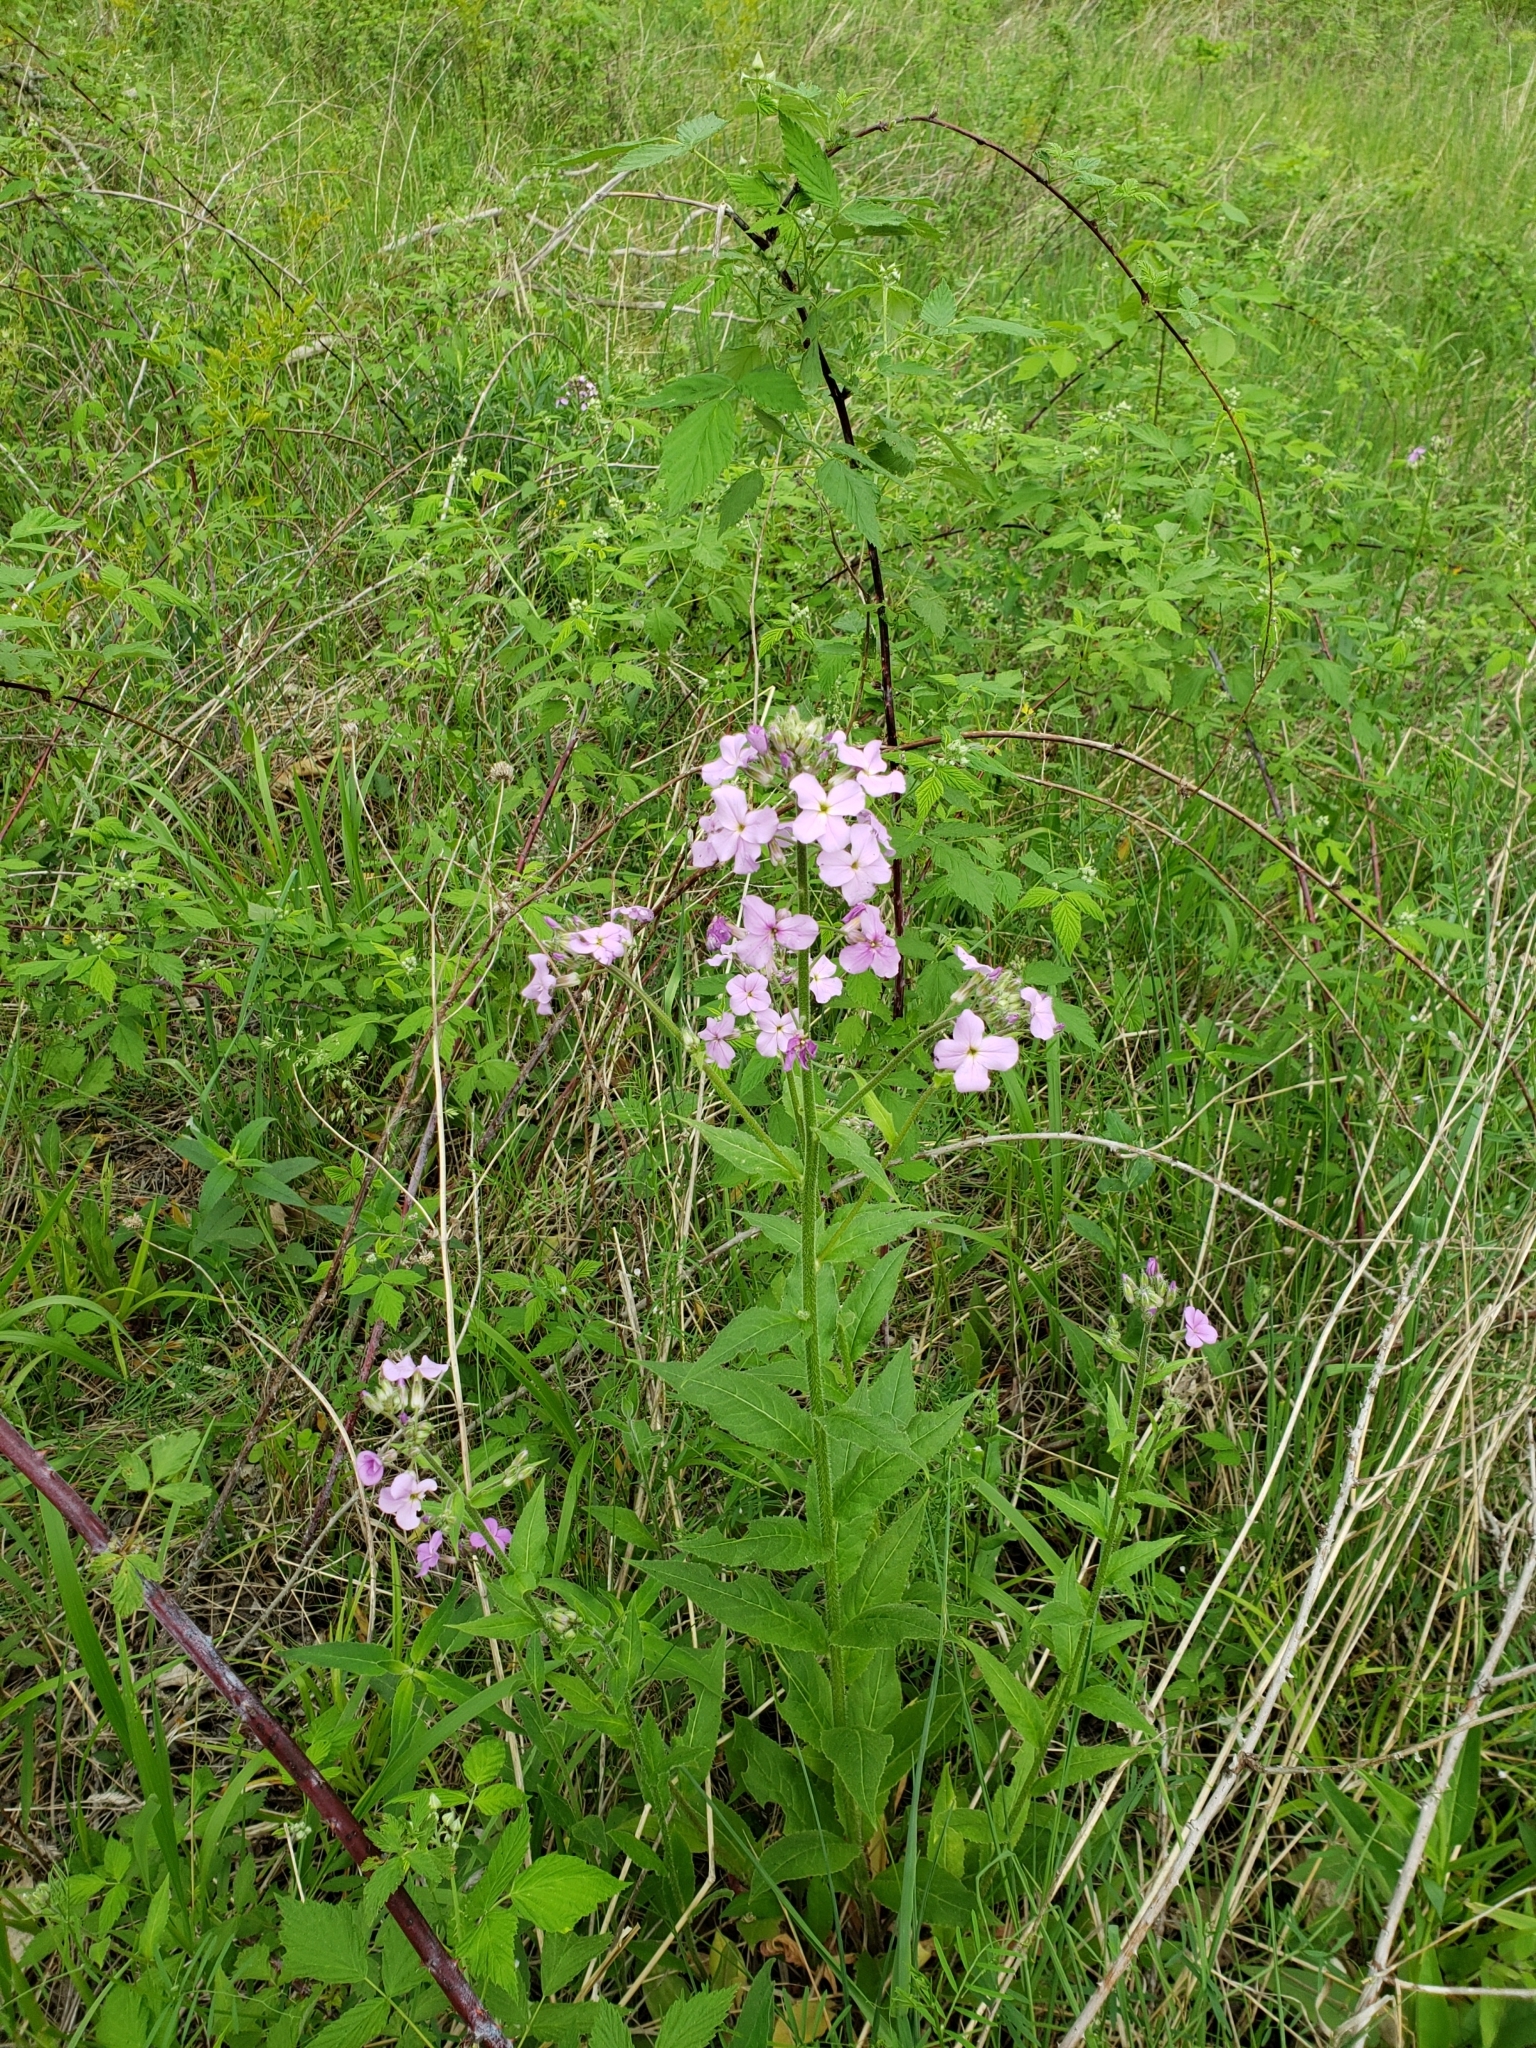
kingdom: Plantae
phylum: Tracheophyta
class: Magnoliopsida
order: Brassicales
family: Brassicaceae
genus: Hesperis
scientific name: Hesperis matronalis
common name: Dame's-violet
